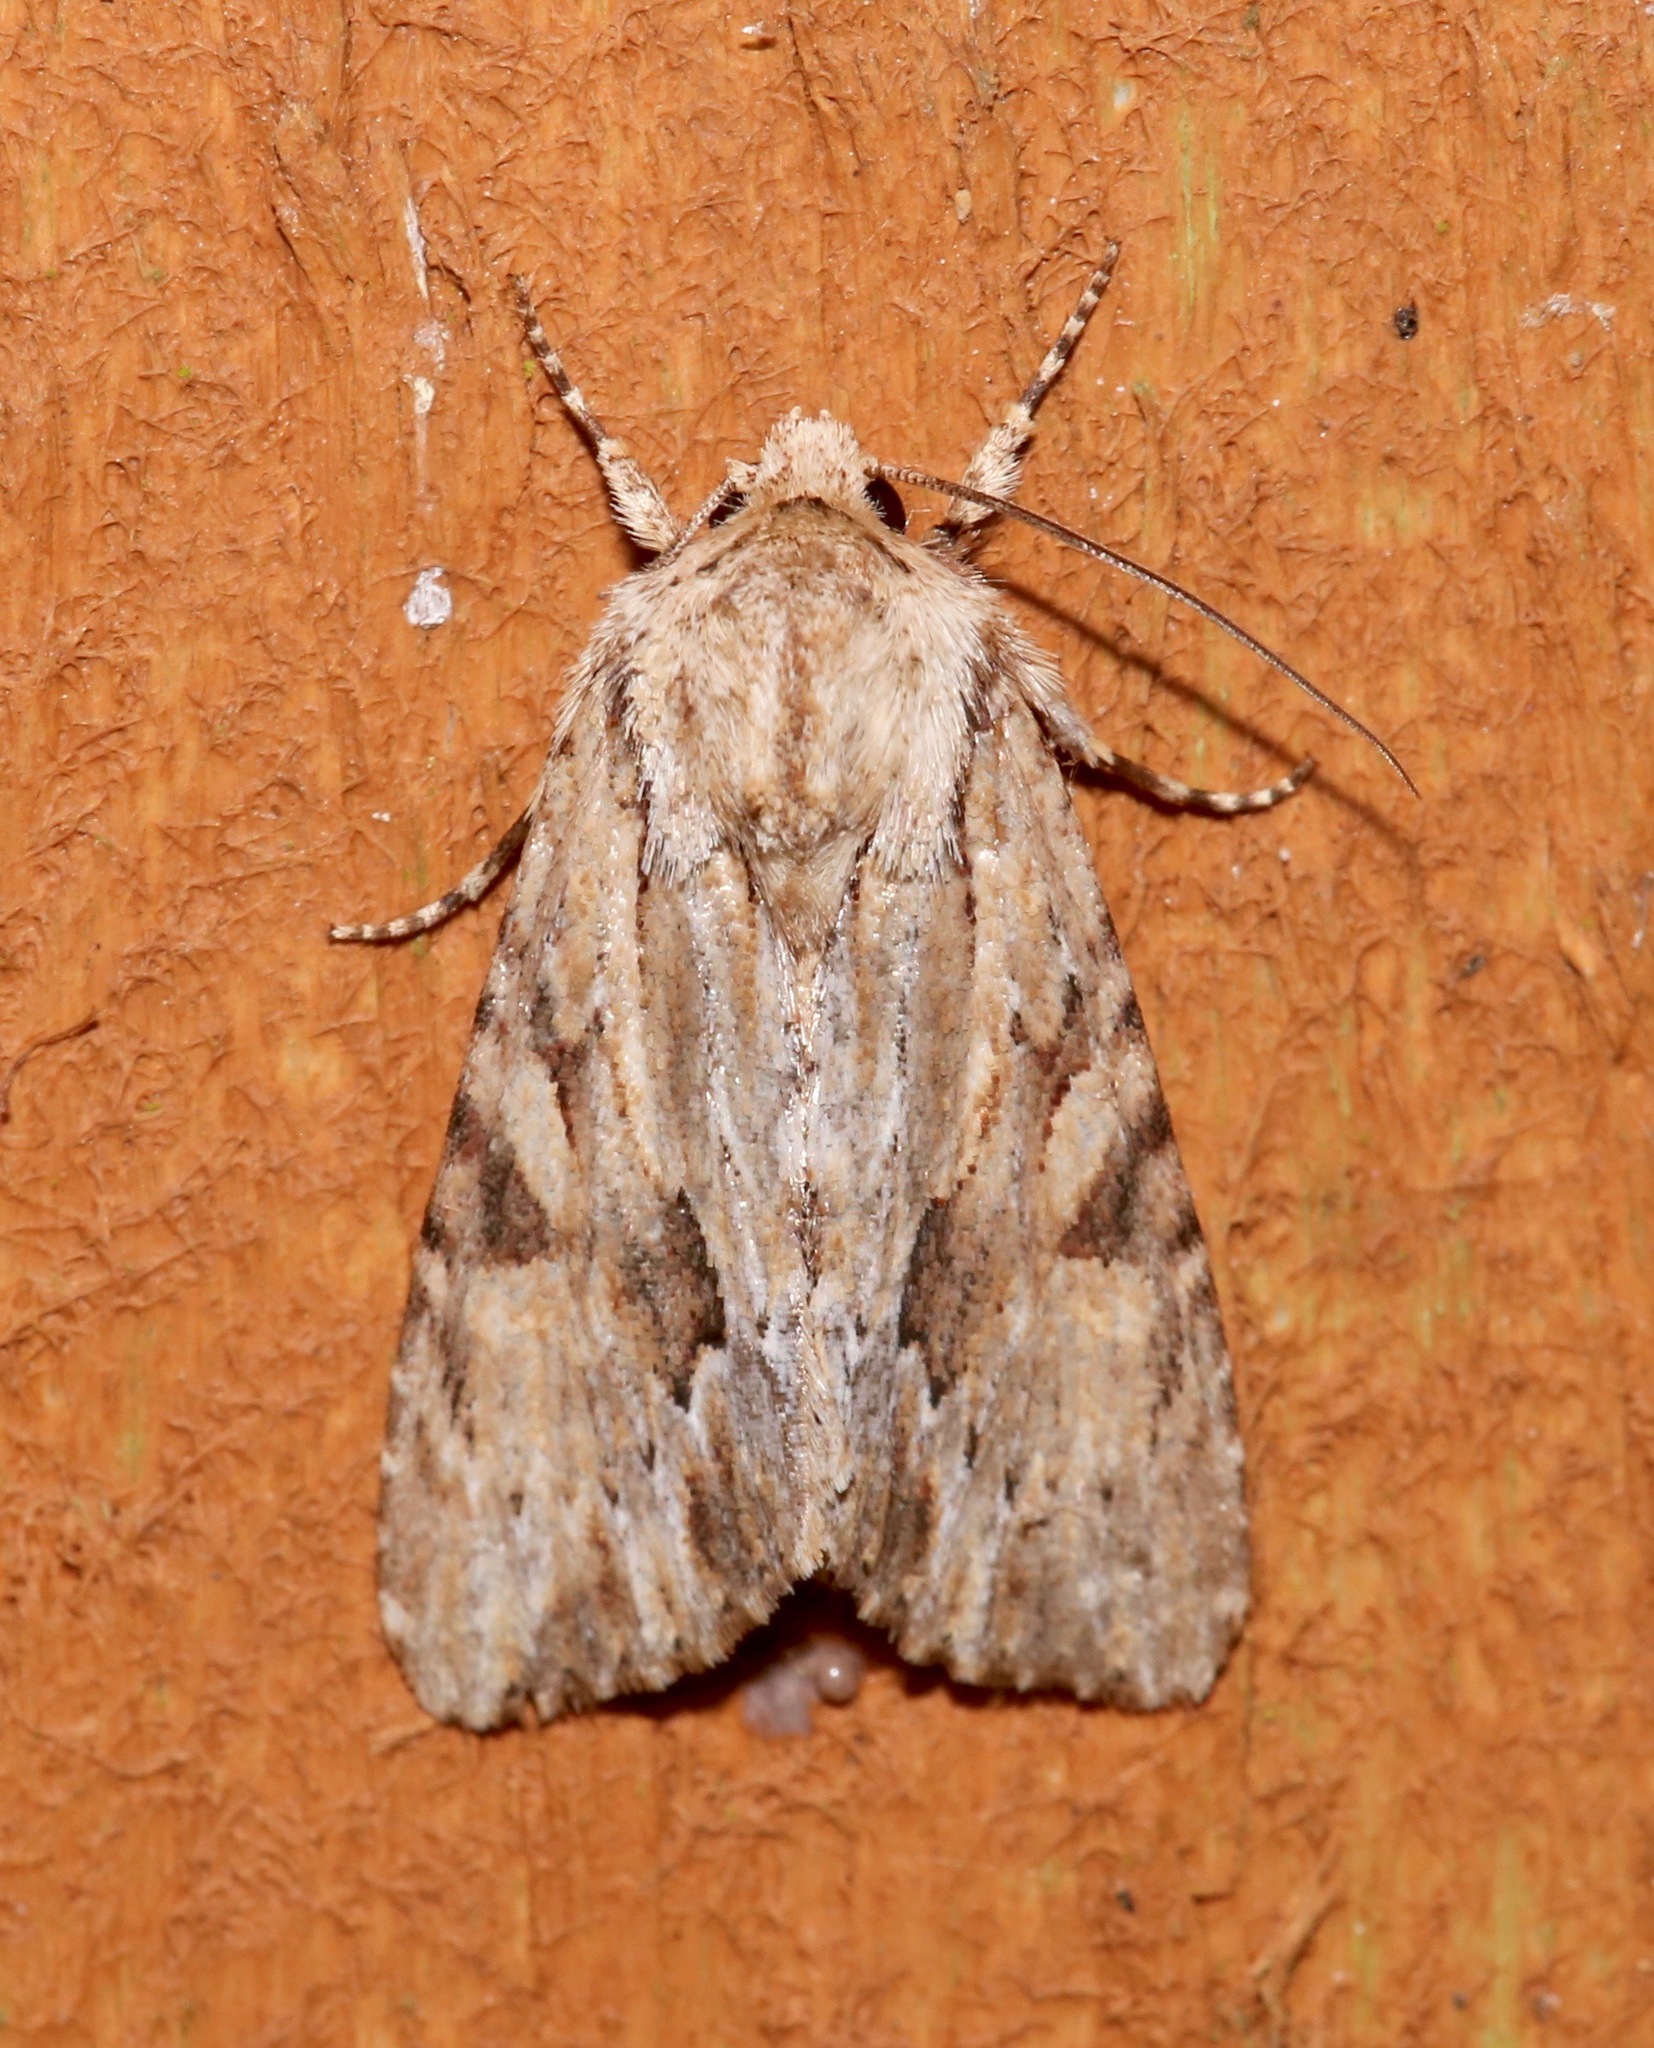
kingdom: Animalia
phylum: Arthropoda
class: Insecta
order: Lepidoptera
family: Noctuidae
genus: Achatia
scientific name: Achatia mucens
